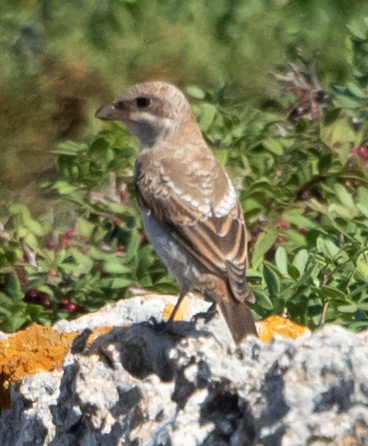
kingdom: Animalia
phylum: Chordata
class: Aves
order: Passeriformes
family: Laniidae
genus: Lanius
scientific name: Lanius senator
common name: Woodchat shrike
